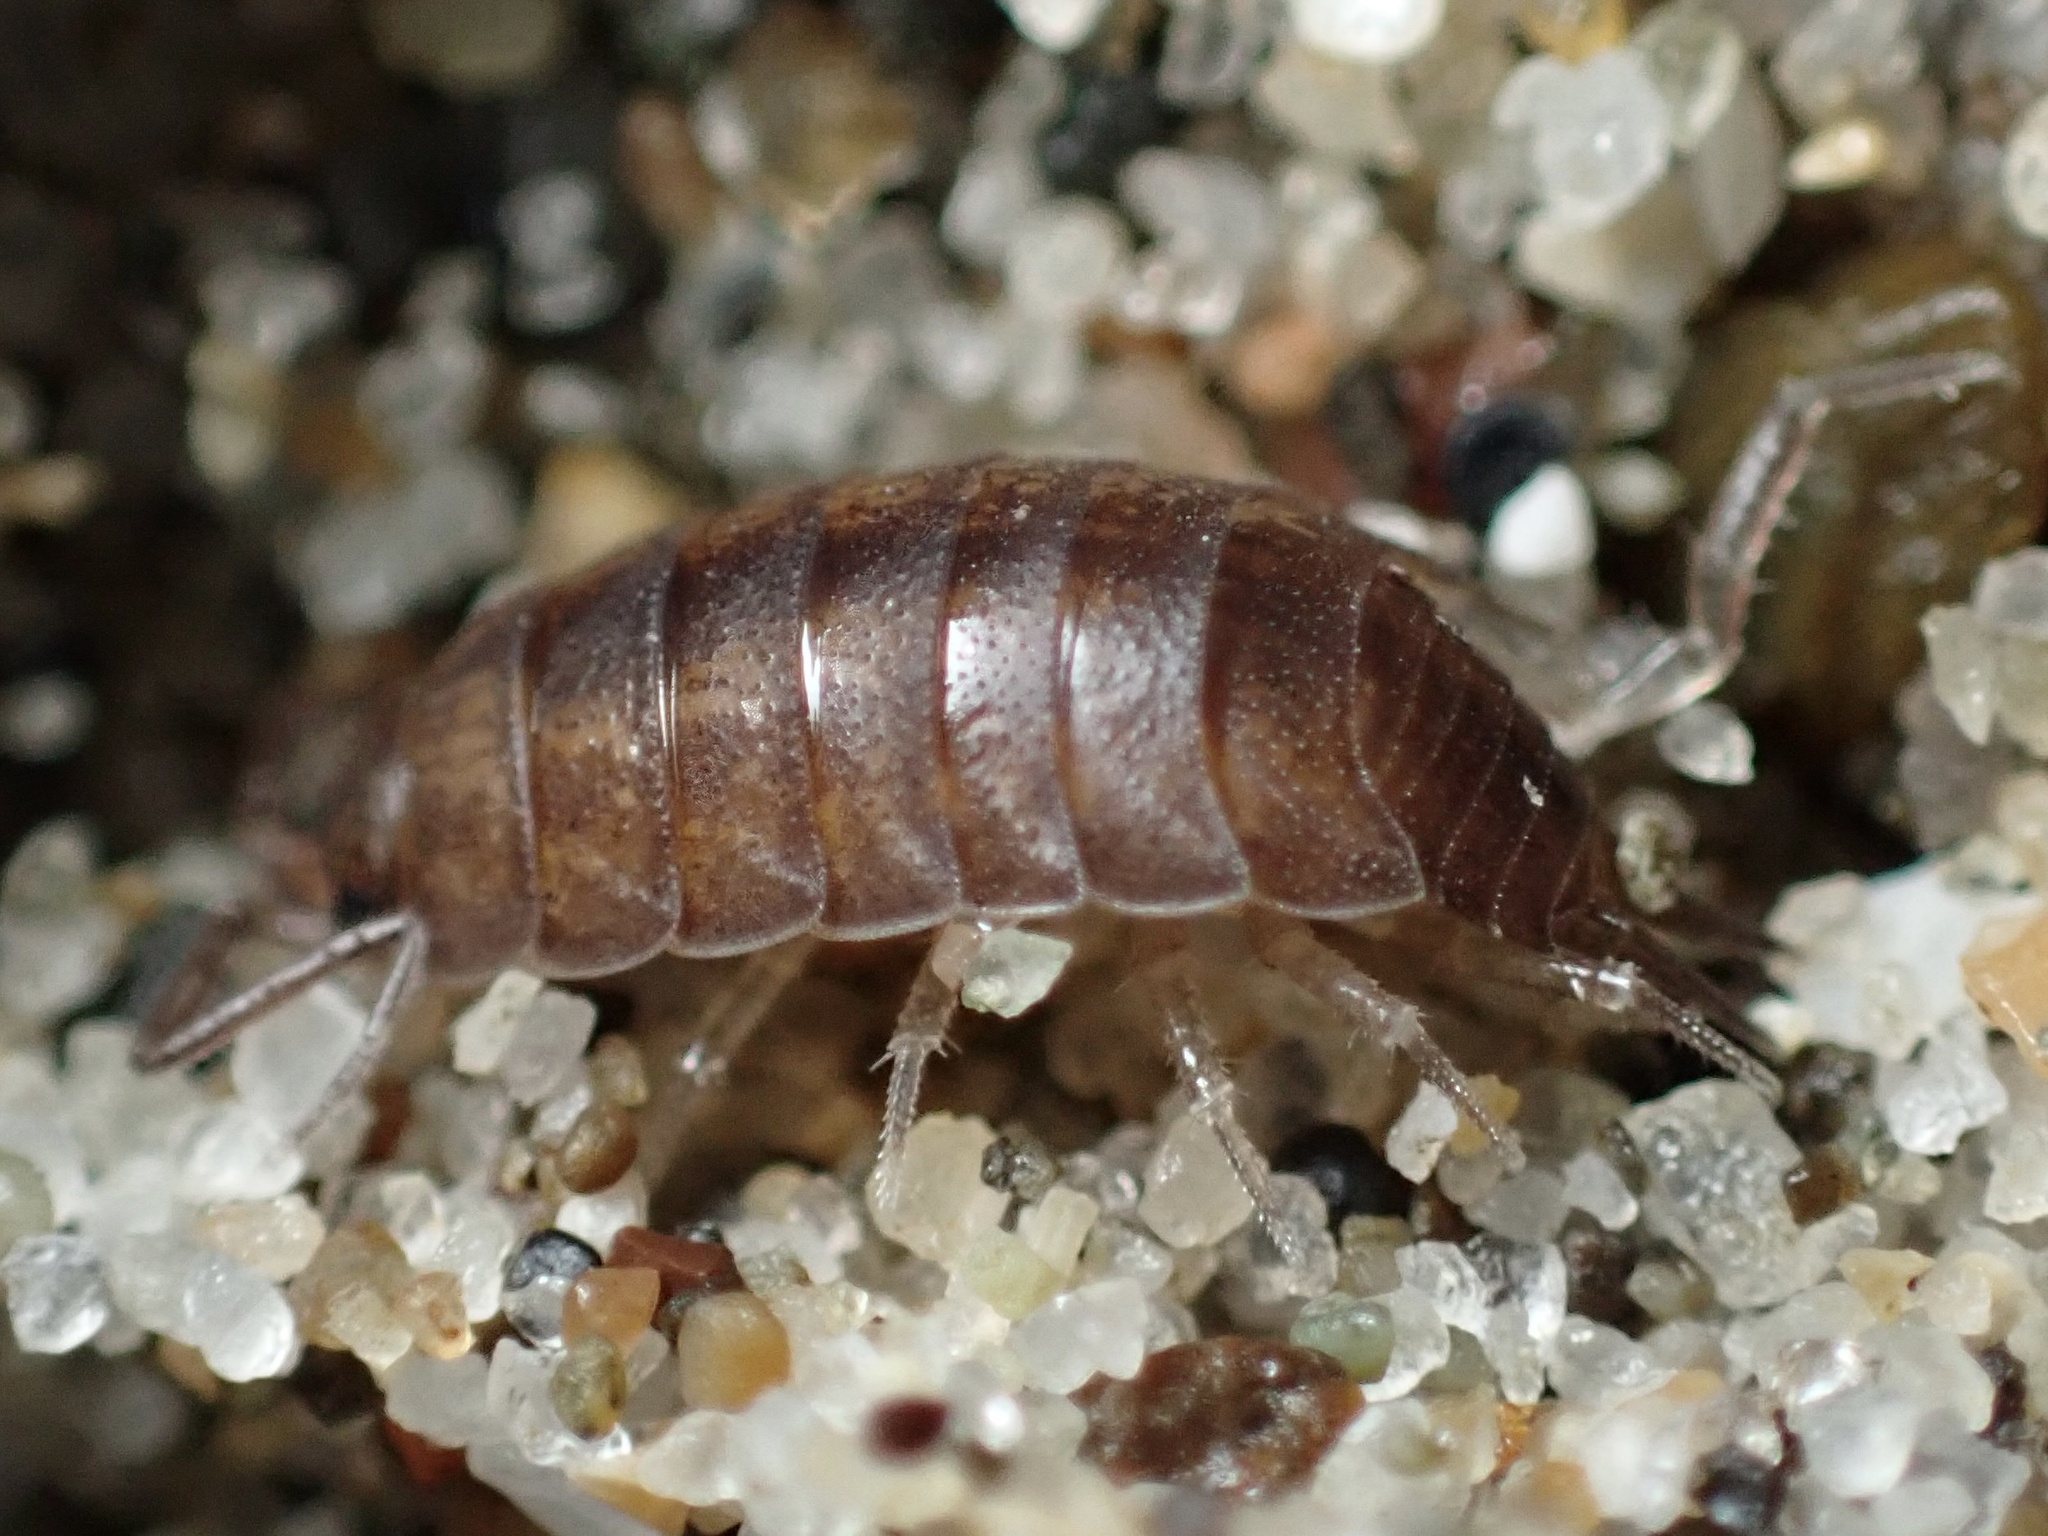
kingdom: Animalia
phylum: Arthropoda
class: Malacostraca
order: Isopoda
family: Halophilosciidae
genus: Littorophiloscia
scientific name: Littorophiloscia richardsonae
